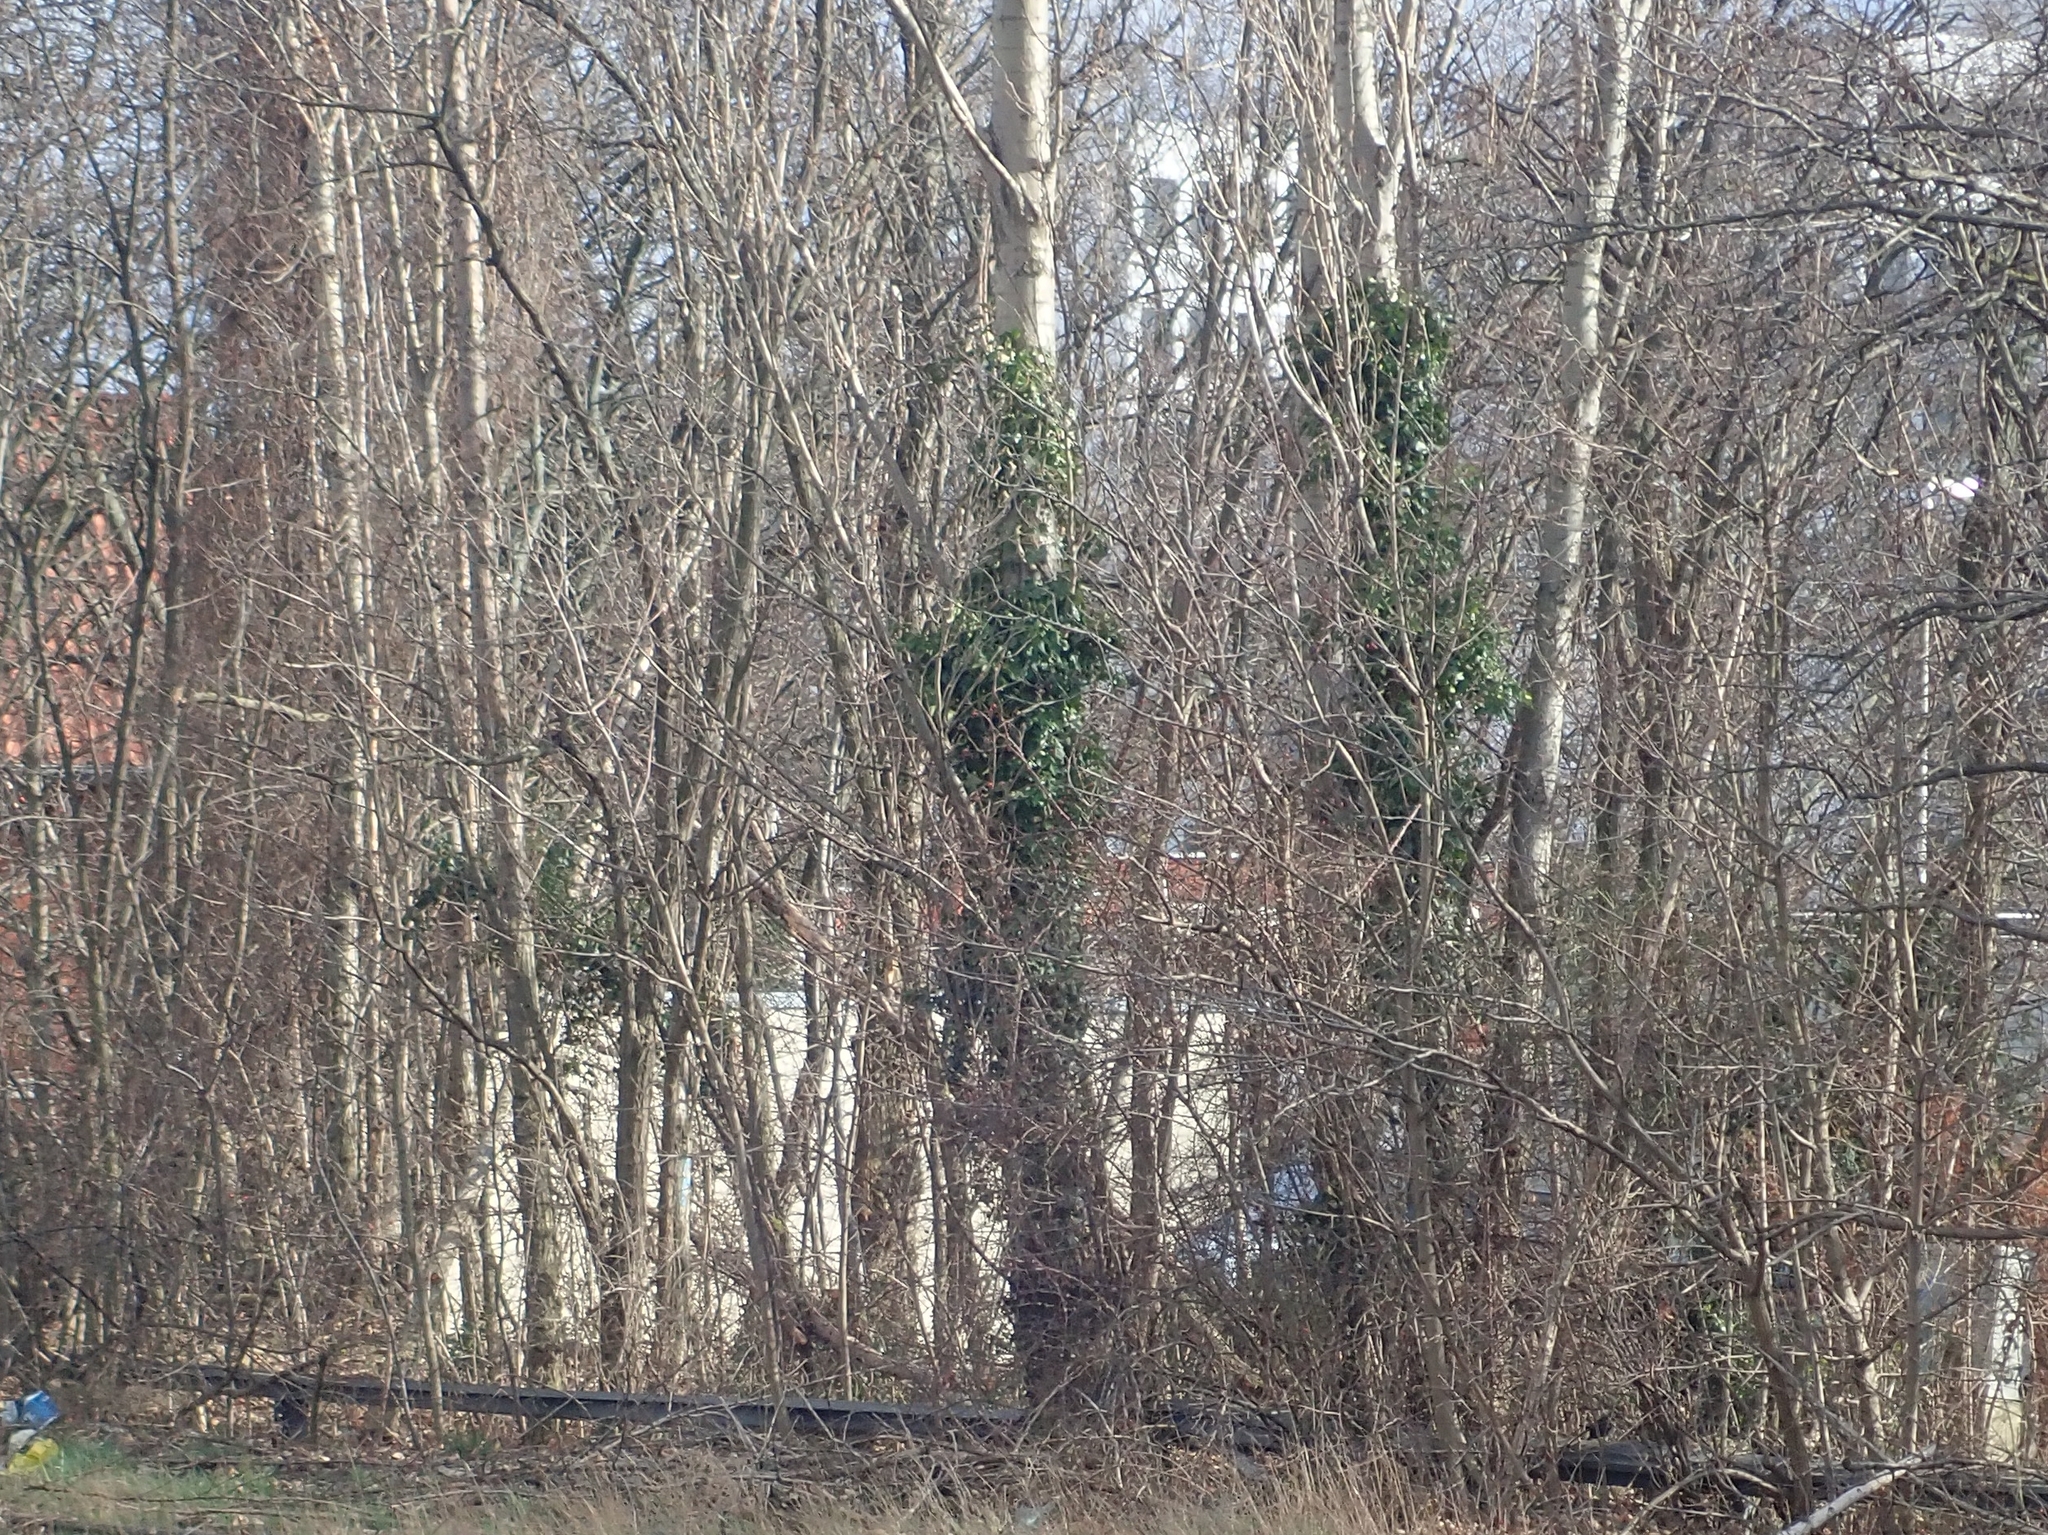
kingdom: Plantae
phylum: Tracheophyta
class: Magnoliopsida
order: Apiales
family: Araliaceae
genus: Hedera
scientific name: Hedera helix
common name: Ivy
